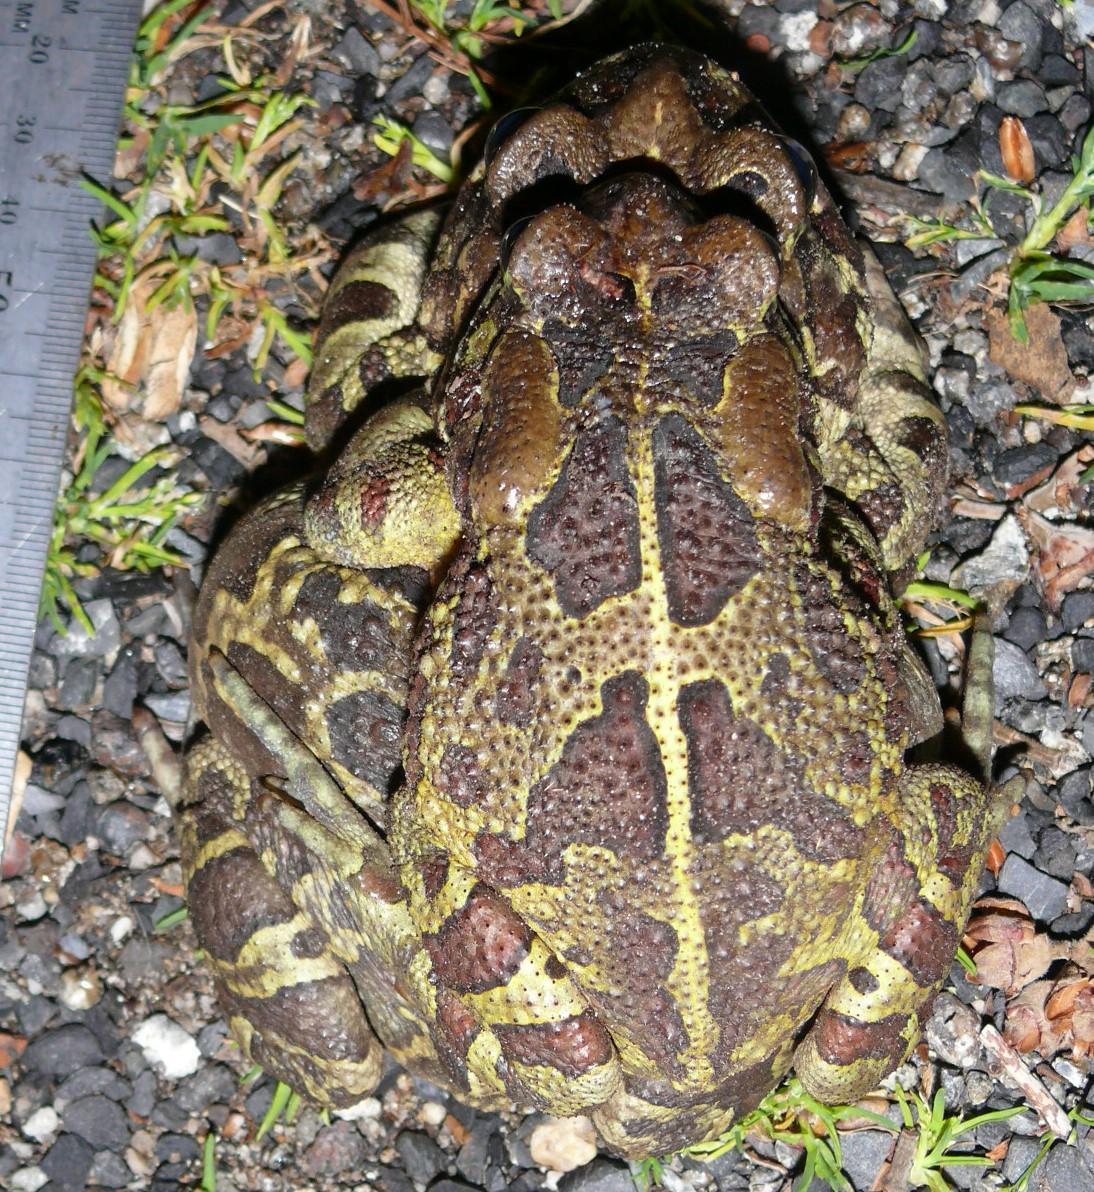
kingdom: Animalia
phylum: Chordata
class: Amphibia
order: Anura
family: Bufonidae
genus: Sclerophrys
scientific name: Sclerophrys pantherina
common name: Panther toad
